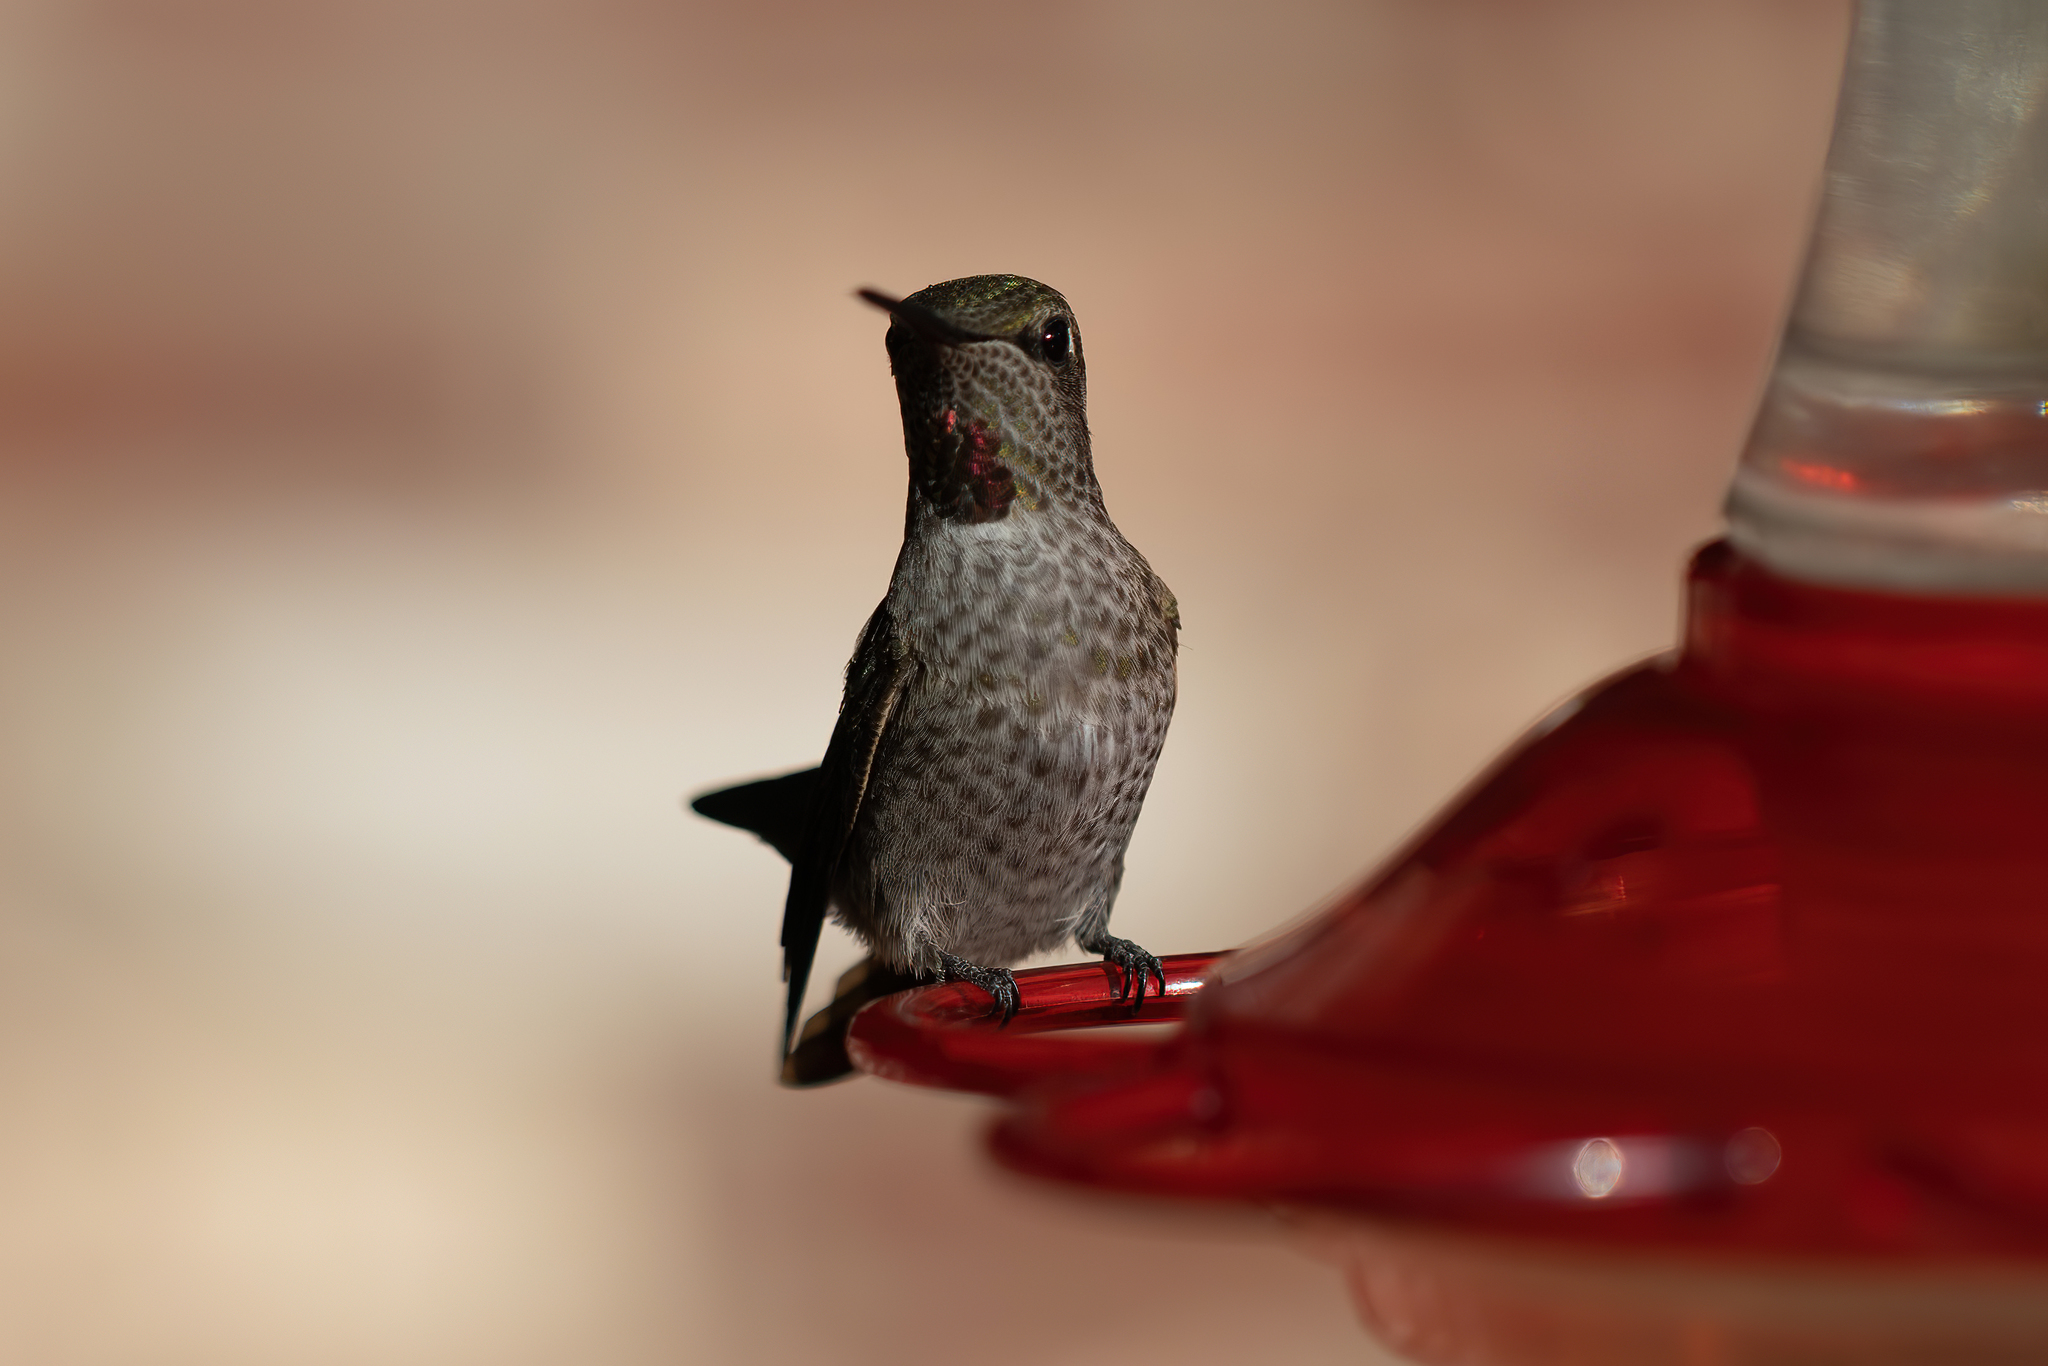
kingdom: Animalia
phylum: Chordata
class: Aves
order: Apodiformes
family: Trochilidae
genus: Calypte
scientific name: Calypte anna
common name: Anna's hummingbird
